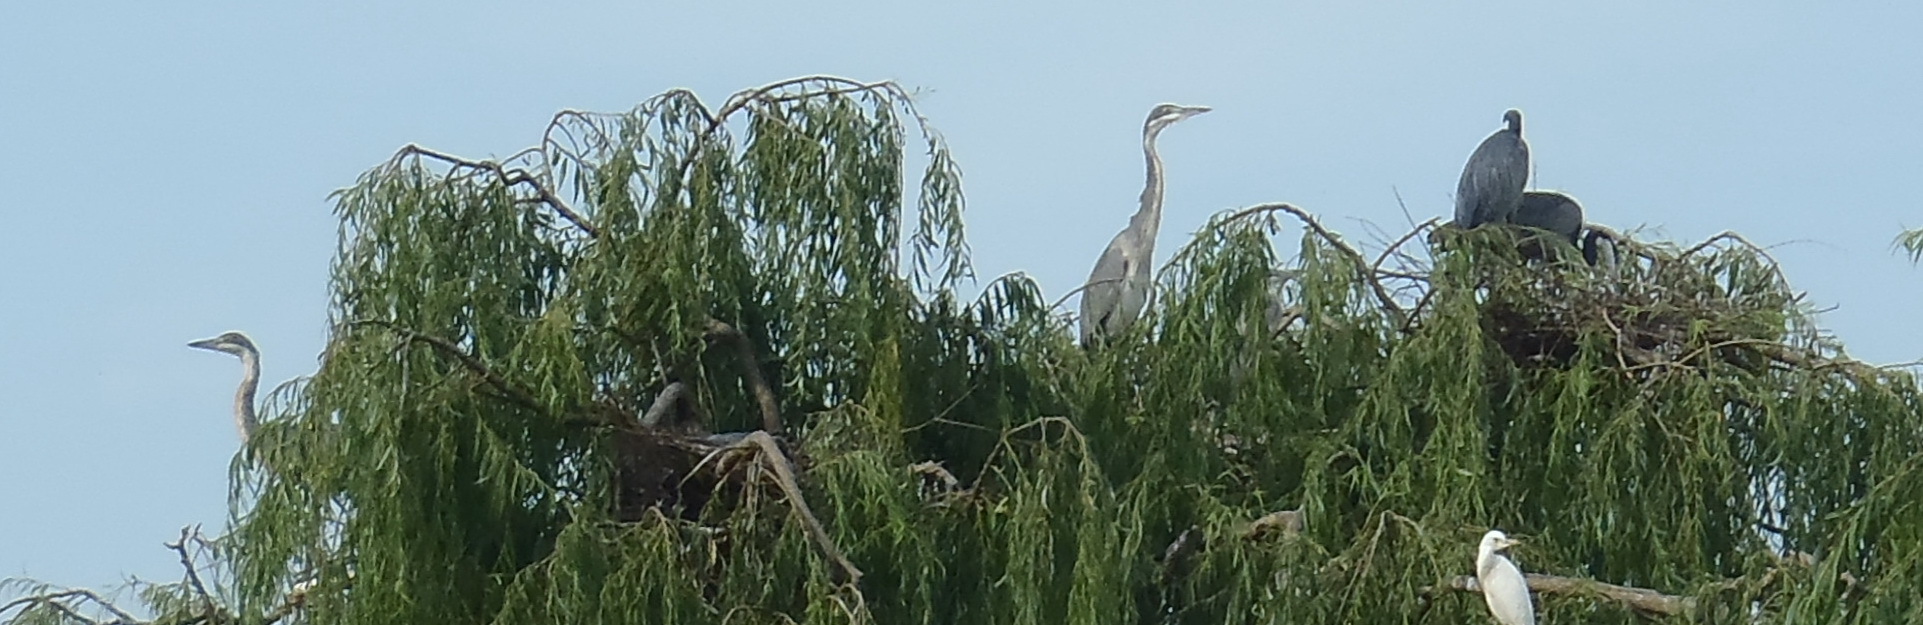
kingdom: Animalia
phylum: Chordata
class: Aves
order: Pelecaniformes
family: Ardeidae
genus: Ardea
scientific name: Ardea melanocephala
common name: Black-headed heron
